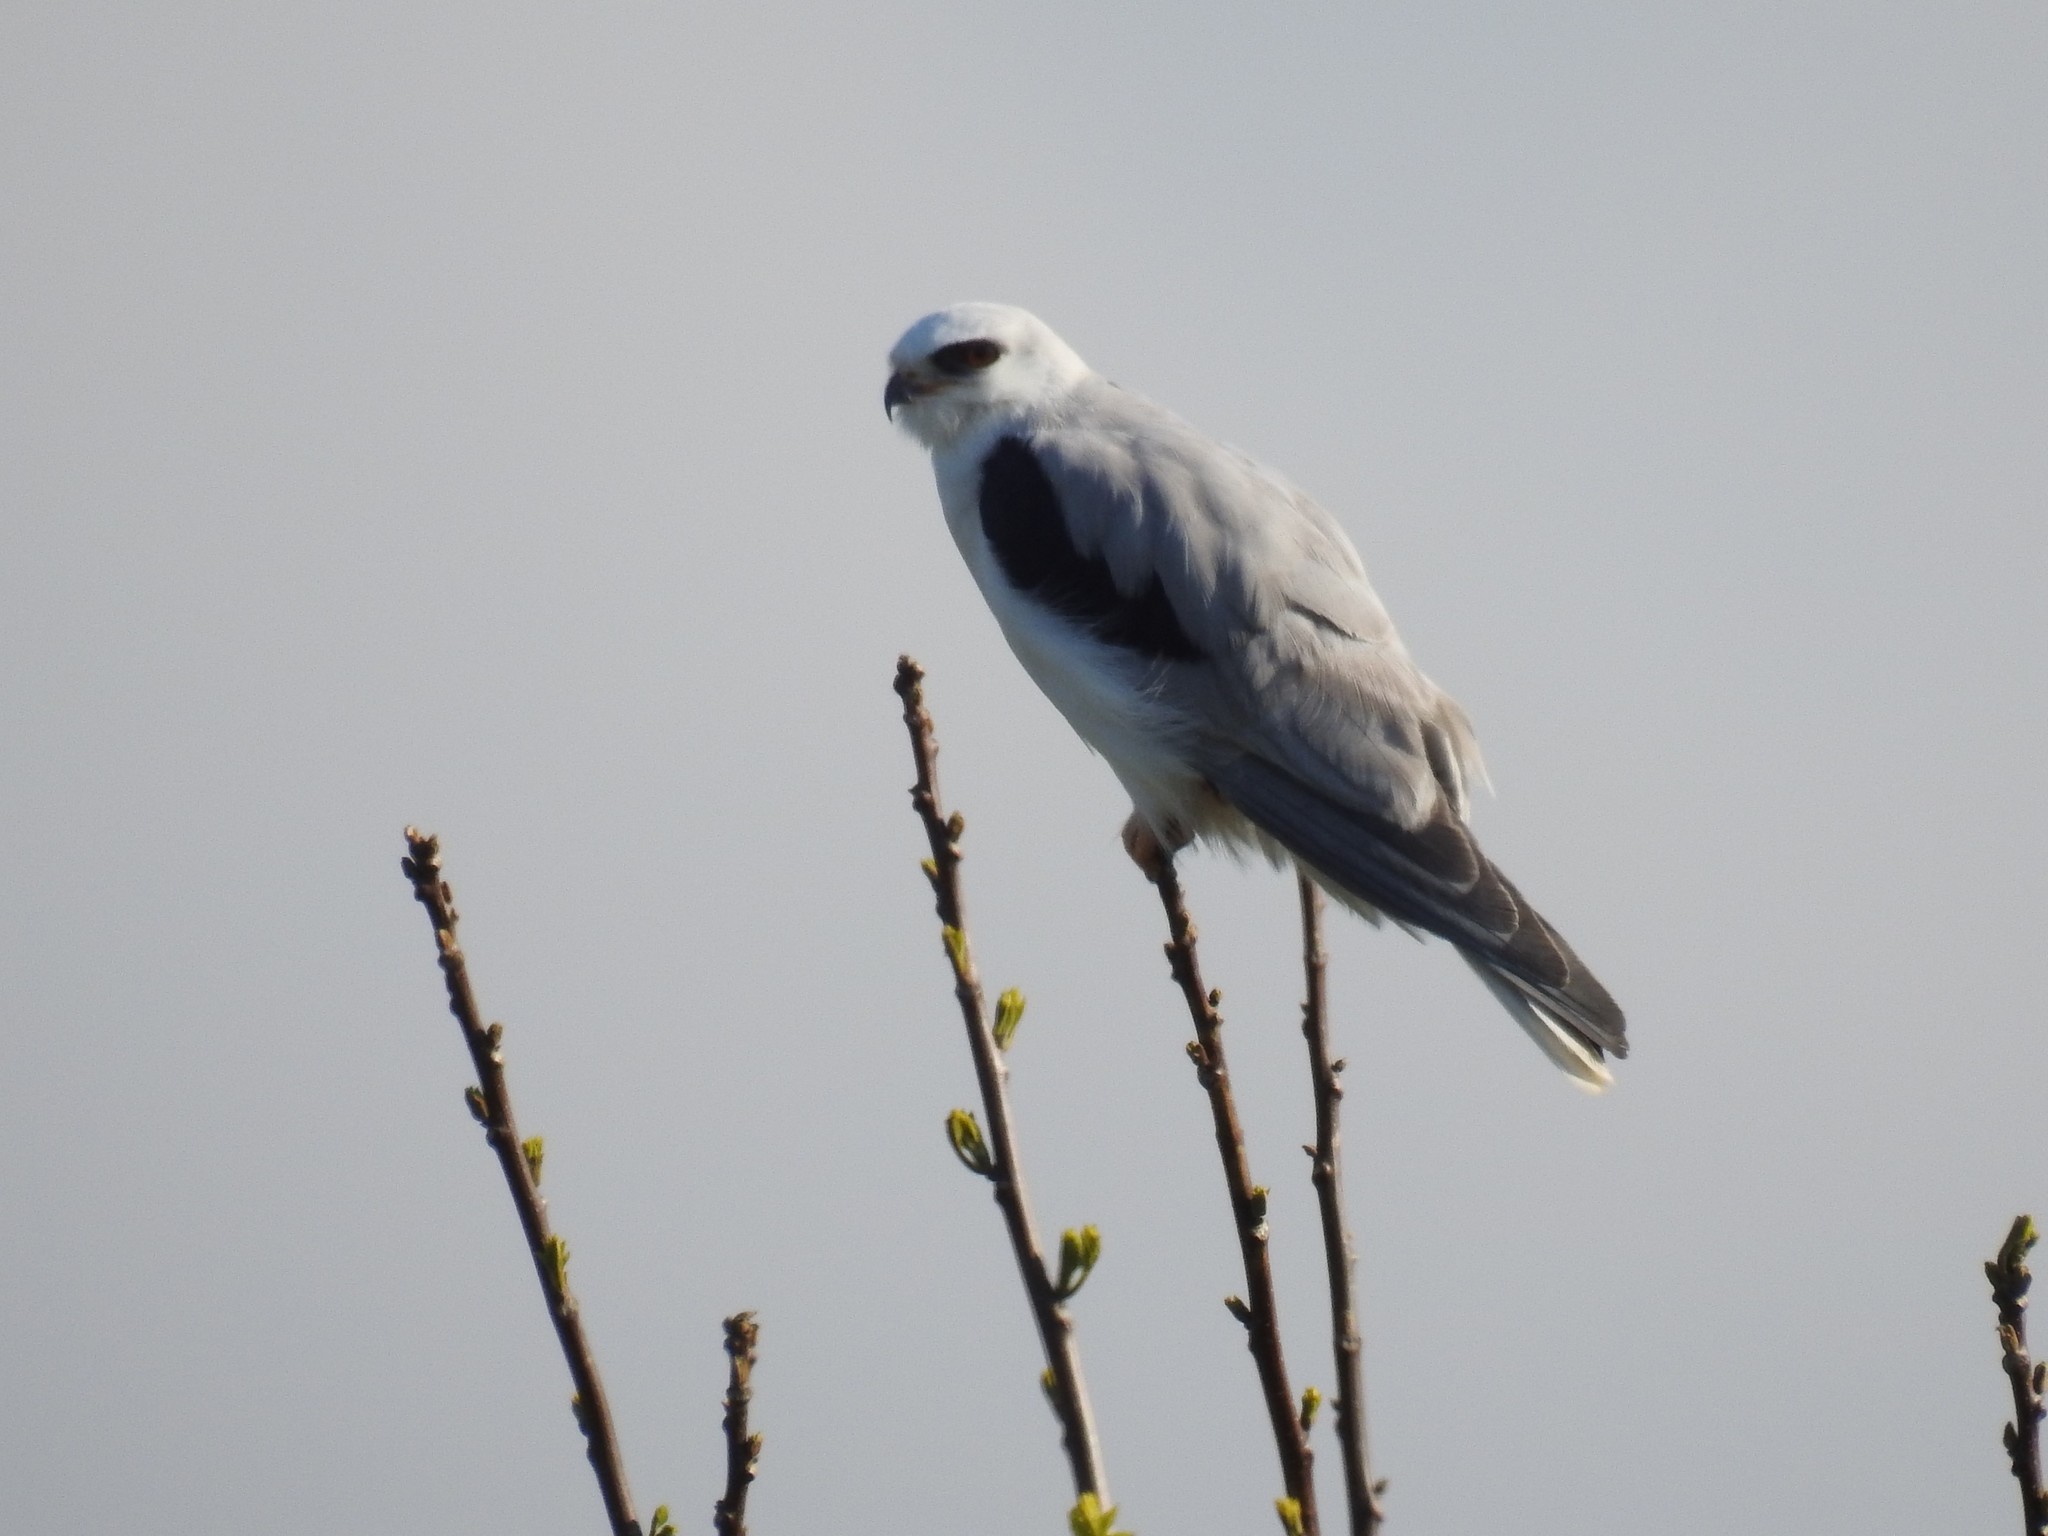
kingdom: Animalia
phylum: Chordata
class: Aves
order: Accipitriformes
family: Accipitridae
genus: Elanus
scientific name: Elanus leucurus
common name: White-tailed kite
